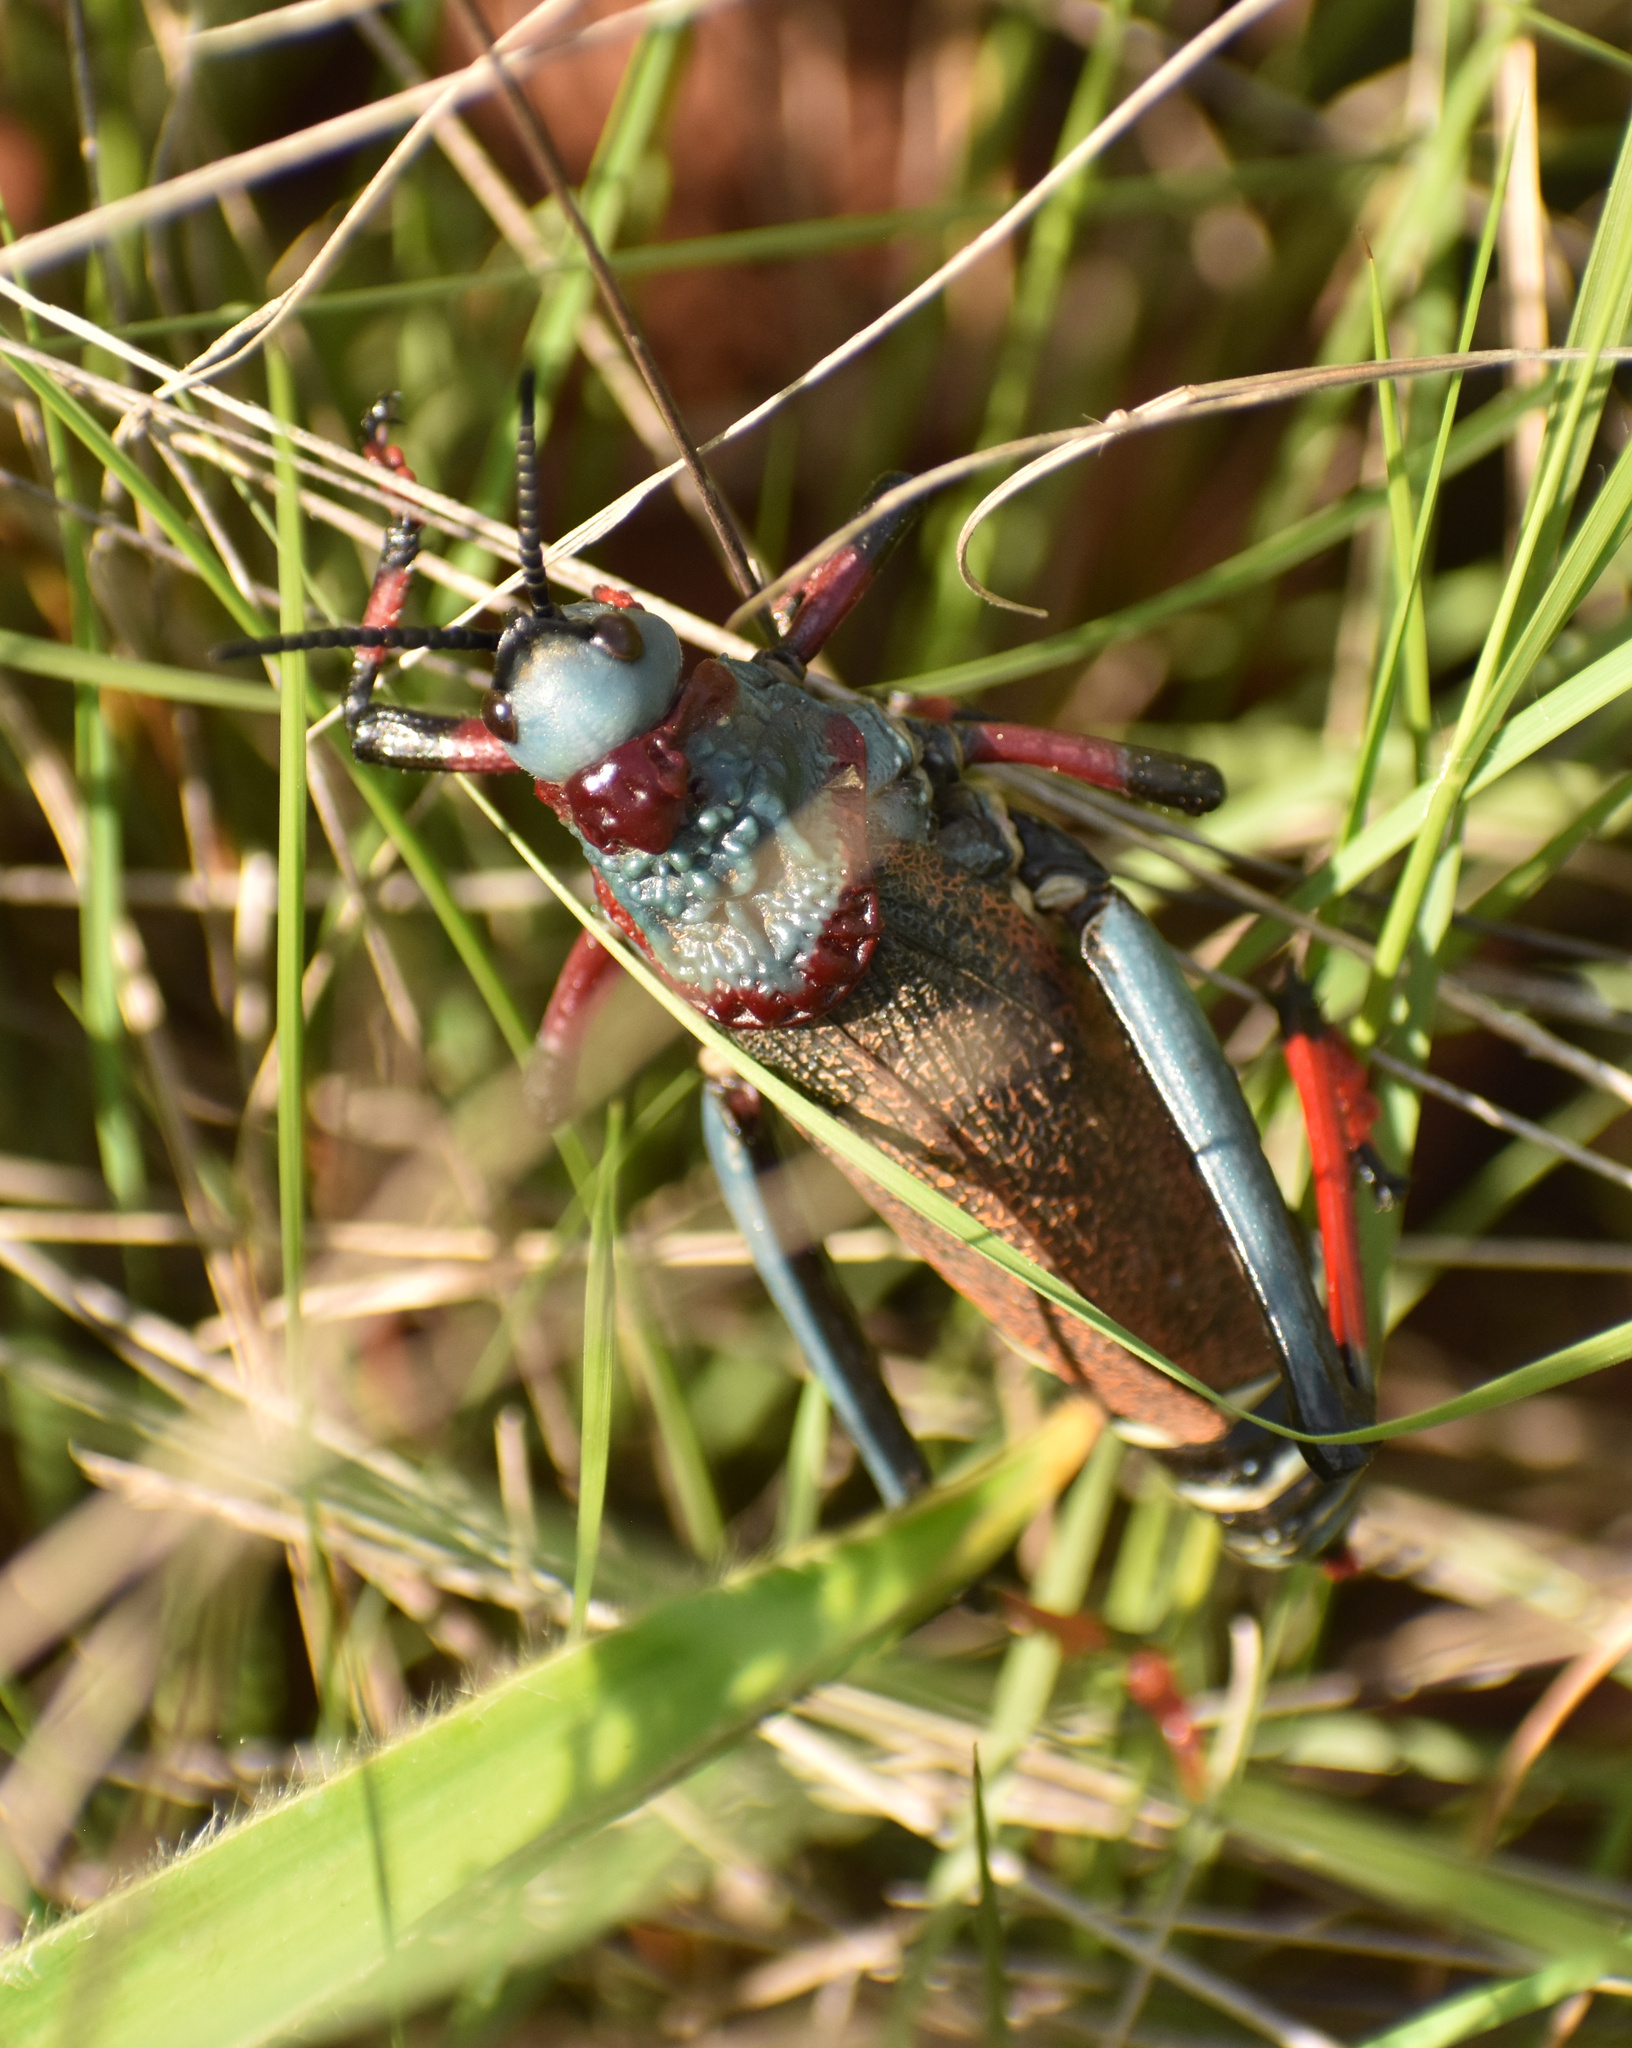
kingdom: Animalia
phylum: Arthropoda
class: Insecta
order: Orthoptera
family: Pyrgomorphidae
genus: Dictyophorus
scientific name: Dictyophorus spumans
